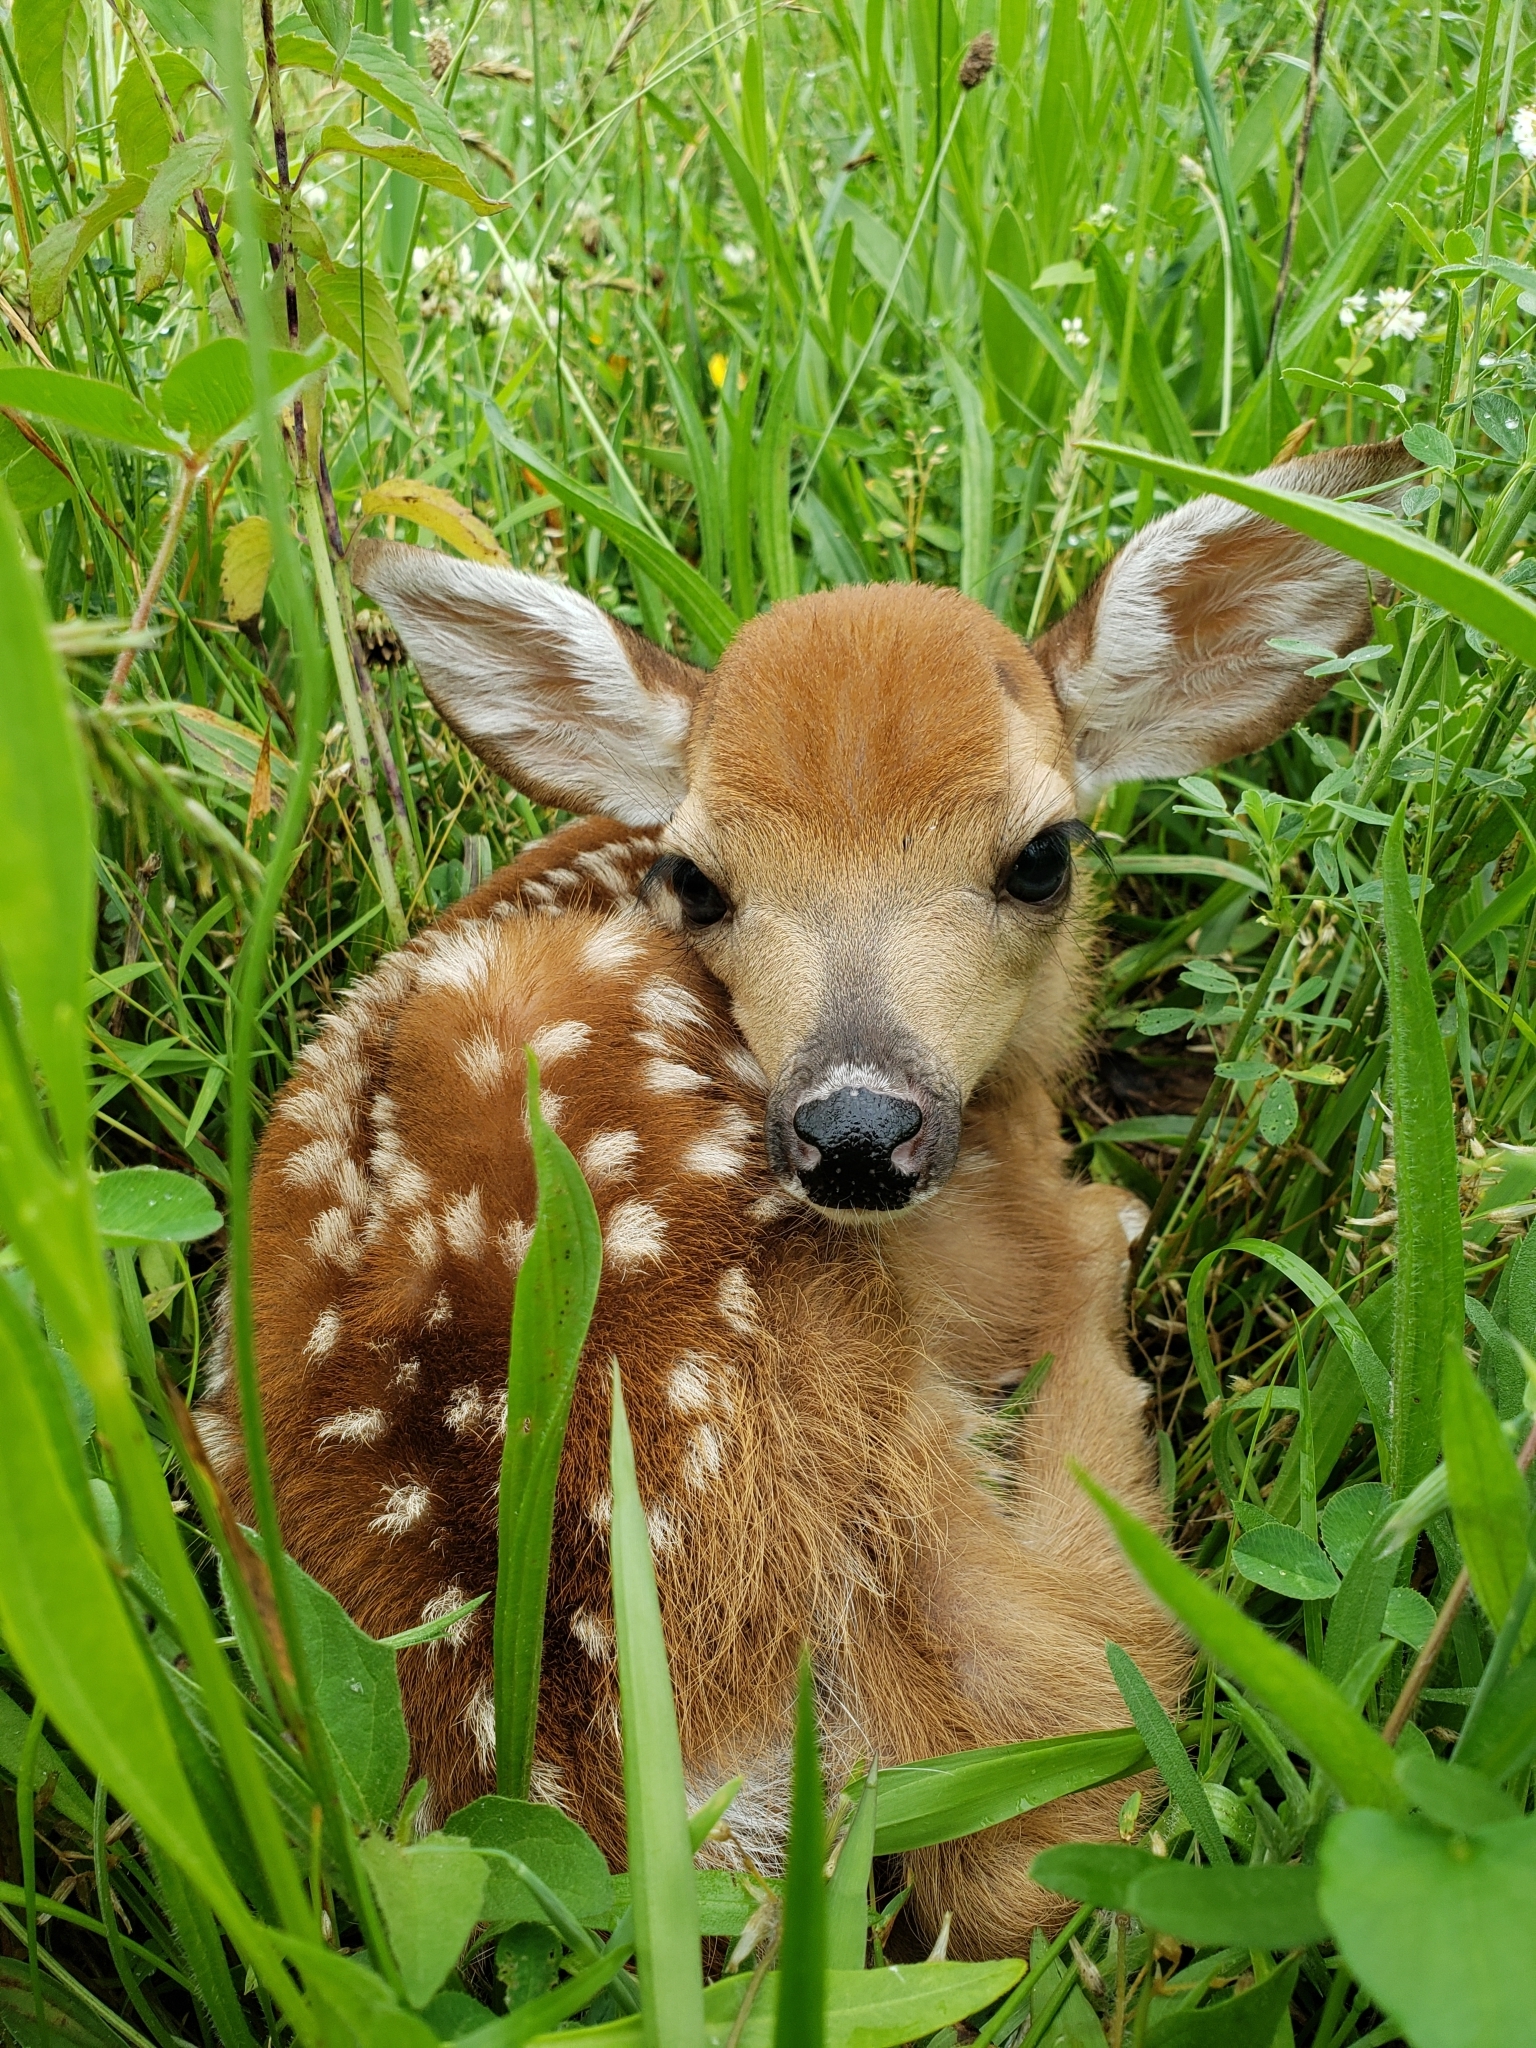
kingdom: Animalia
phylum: Chordata
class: Mammalia
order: Artiodactyla
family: Cervidae
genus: Odocoileus
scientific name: Odocoileus virginianus
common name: White-tailed deer
